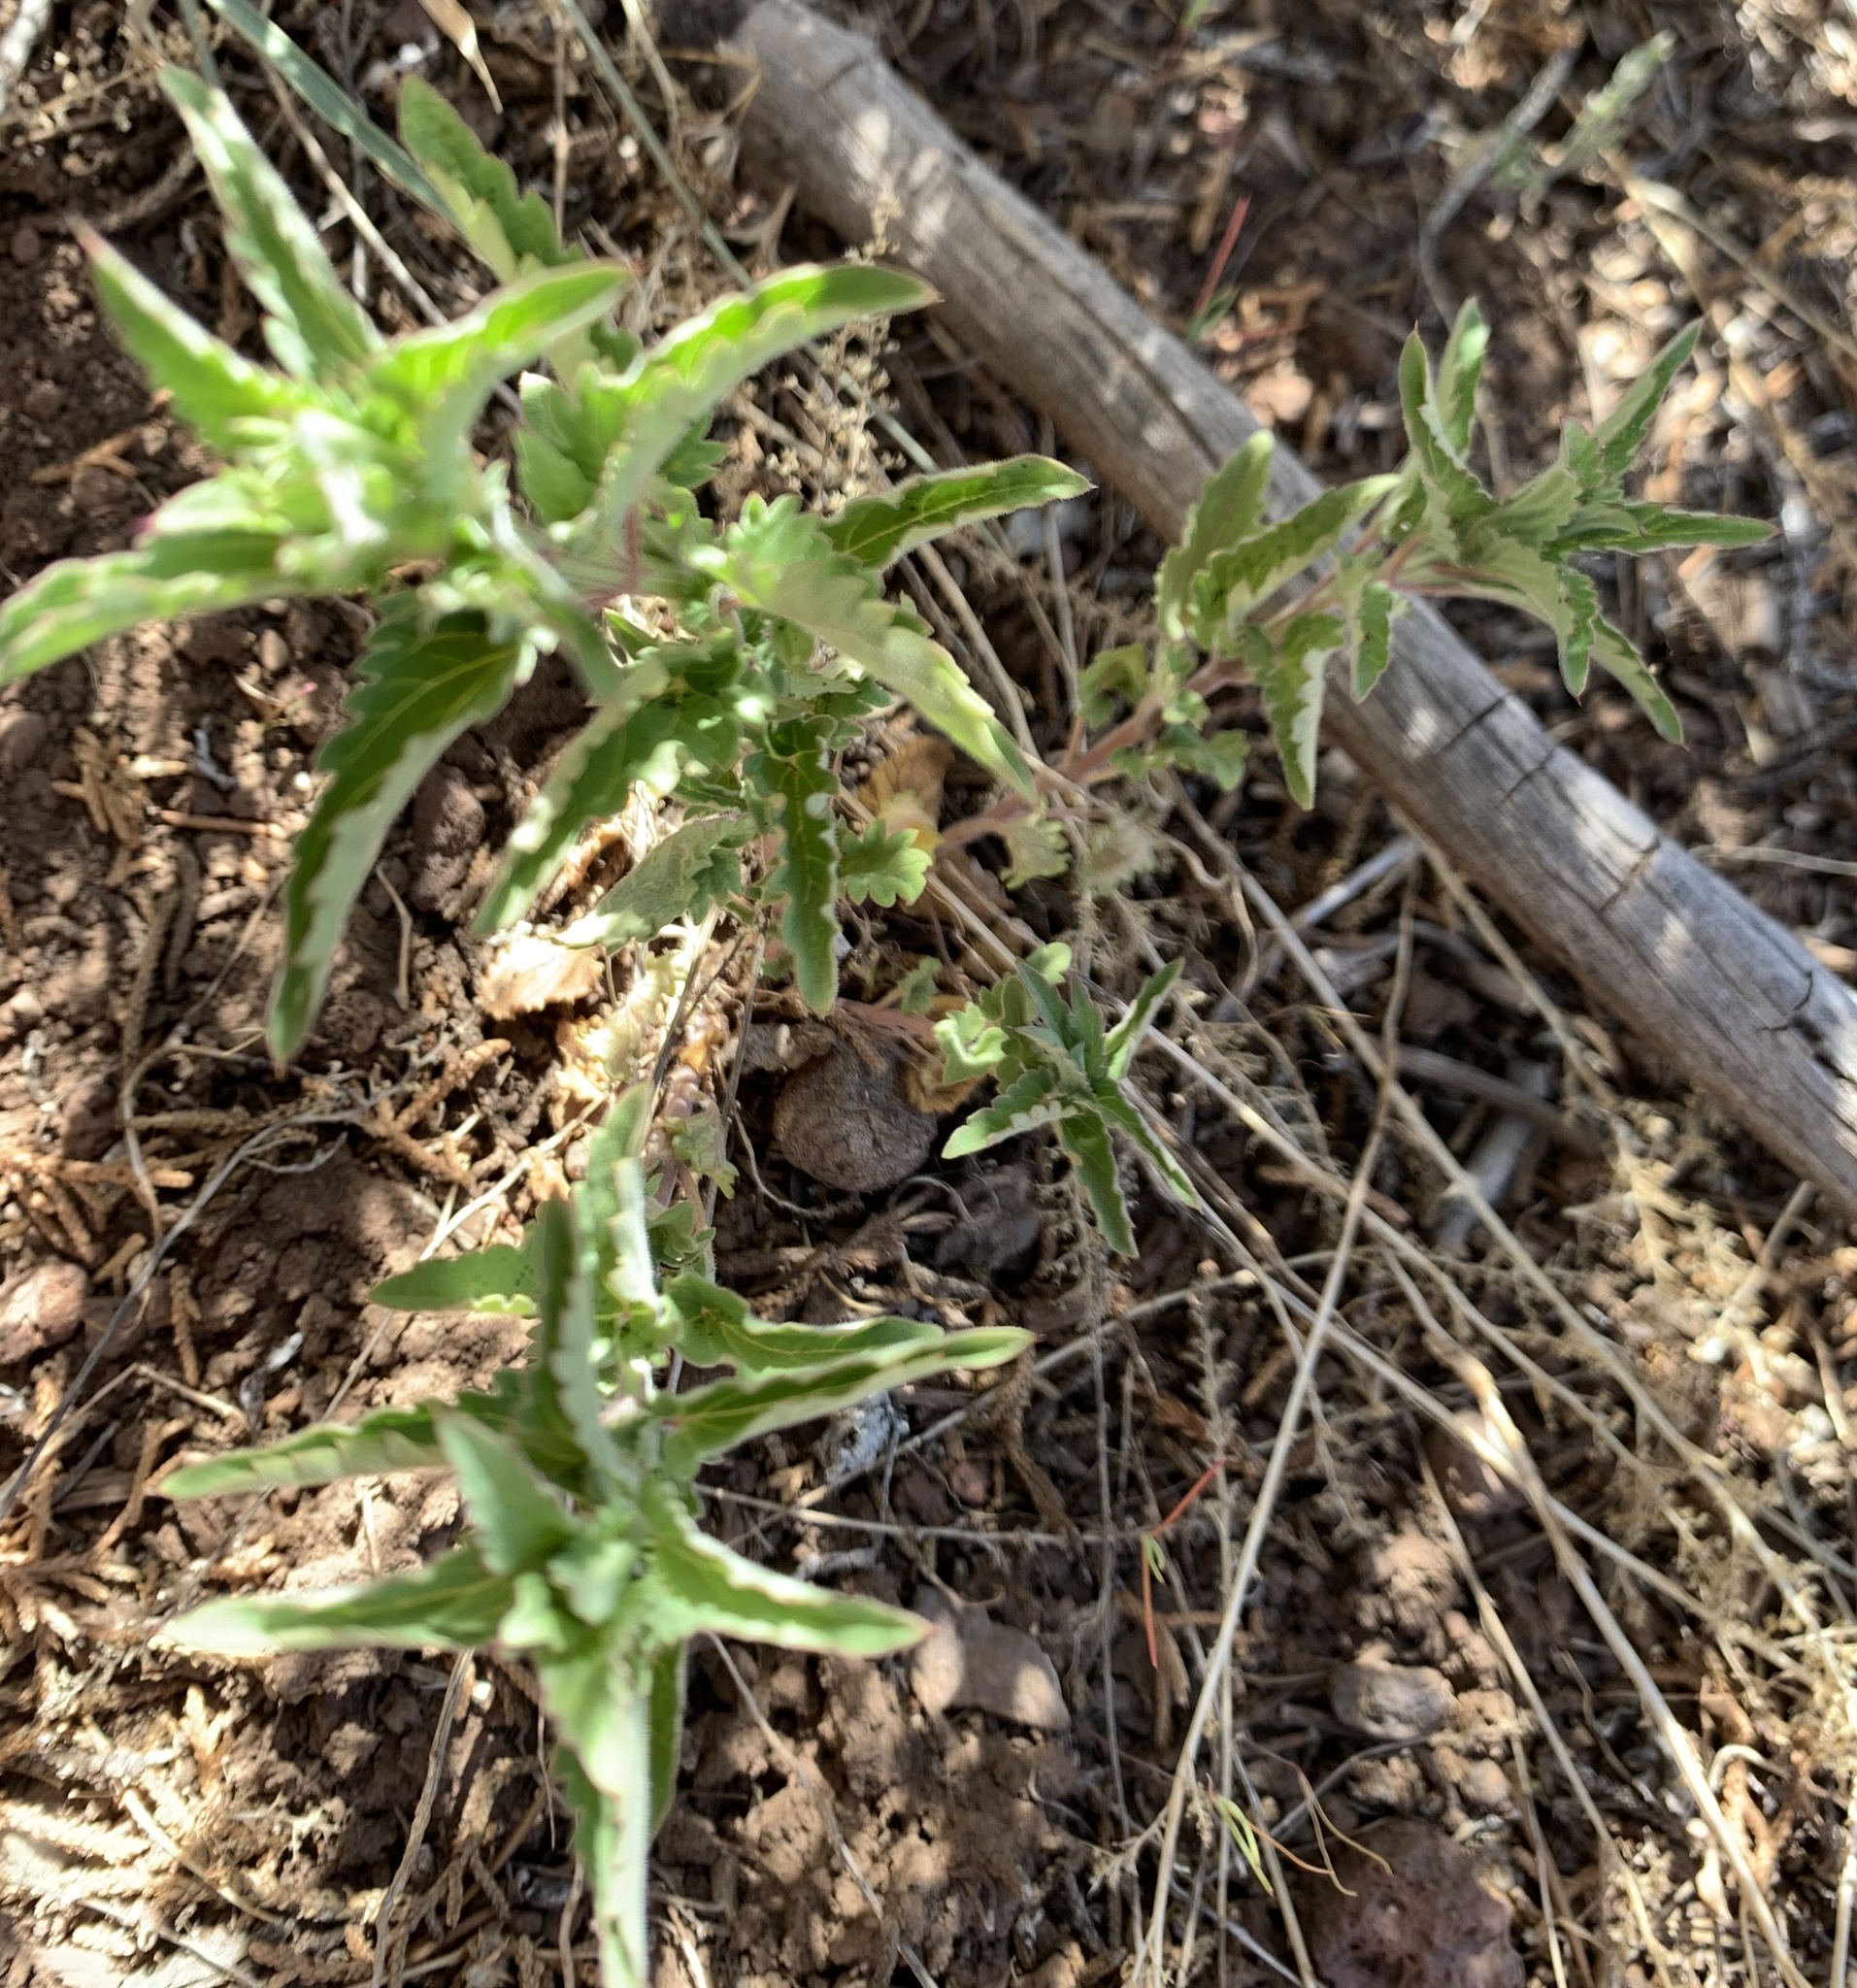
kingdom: Plantae
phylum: Tracheophyta
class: Magnoliopsida
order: Lamiales
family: Lamiaceae
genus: Dracocephalum
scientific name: Dracocephalum parviflorum
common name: American dragonhead
